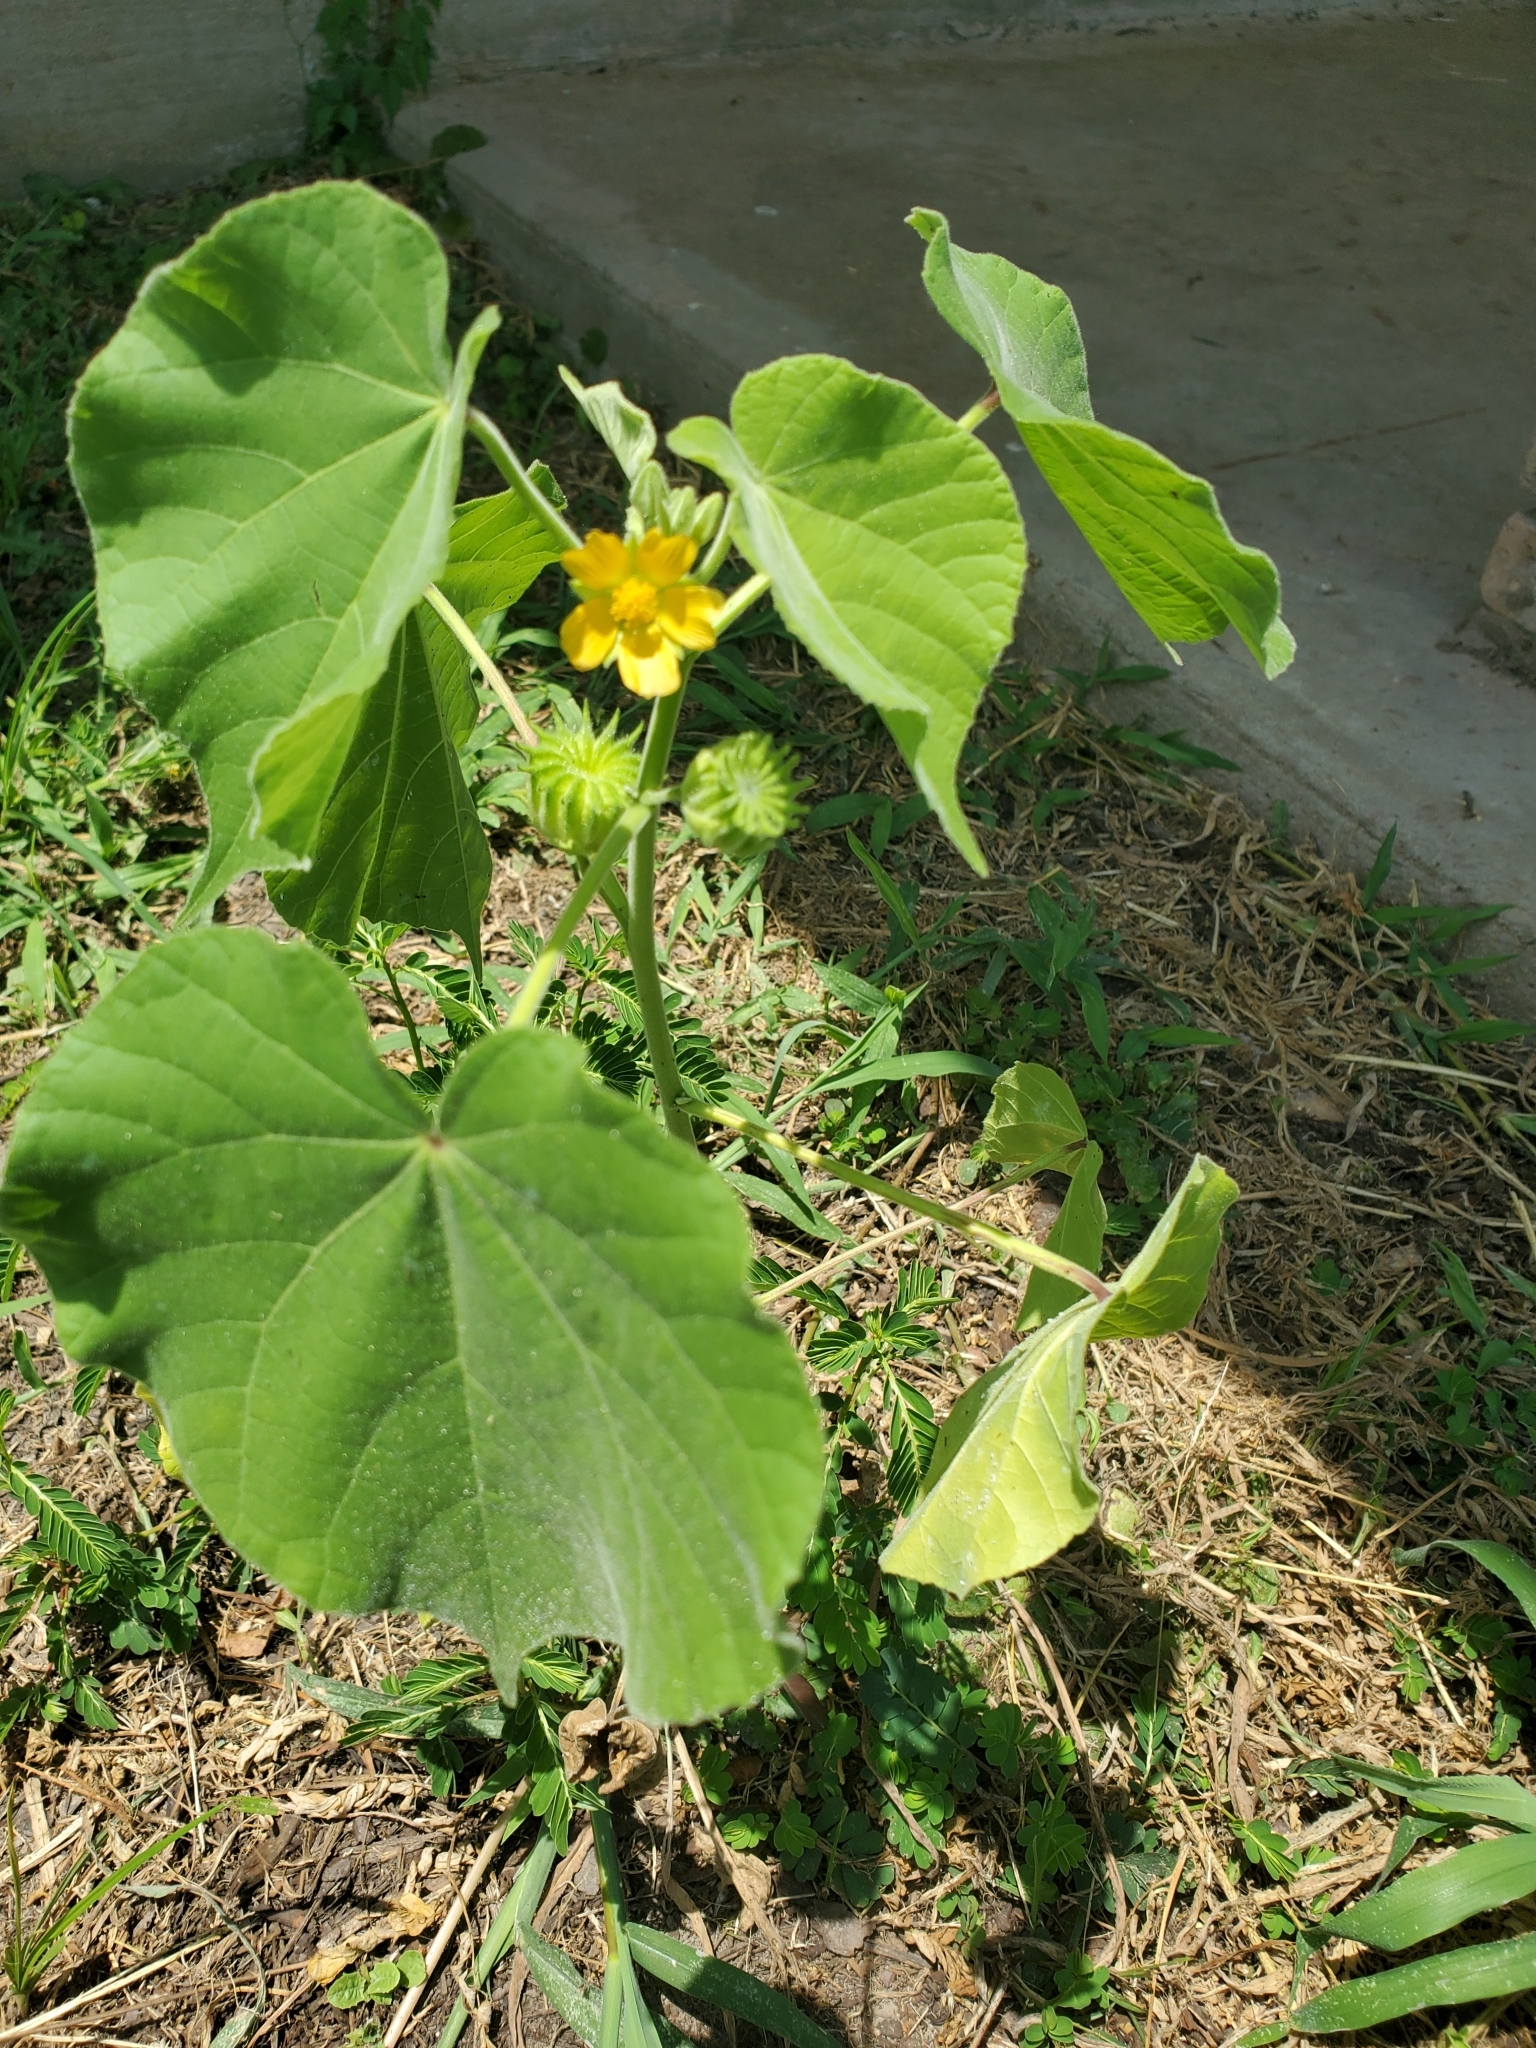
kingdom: Plantae
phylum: Tracheophyta
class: Magnoliopsida
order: Malvales
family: Malvaceae
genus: Abutilon
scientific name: Abutilon theophrasti
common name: Velvetleaf
